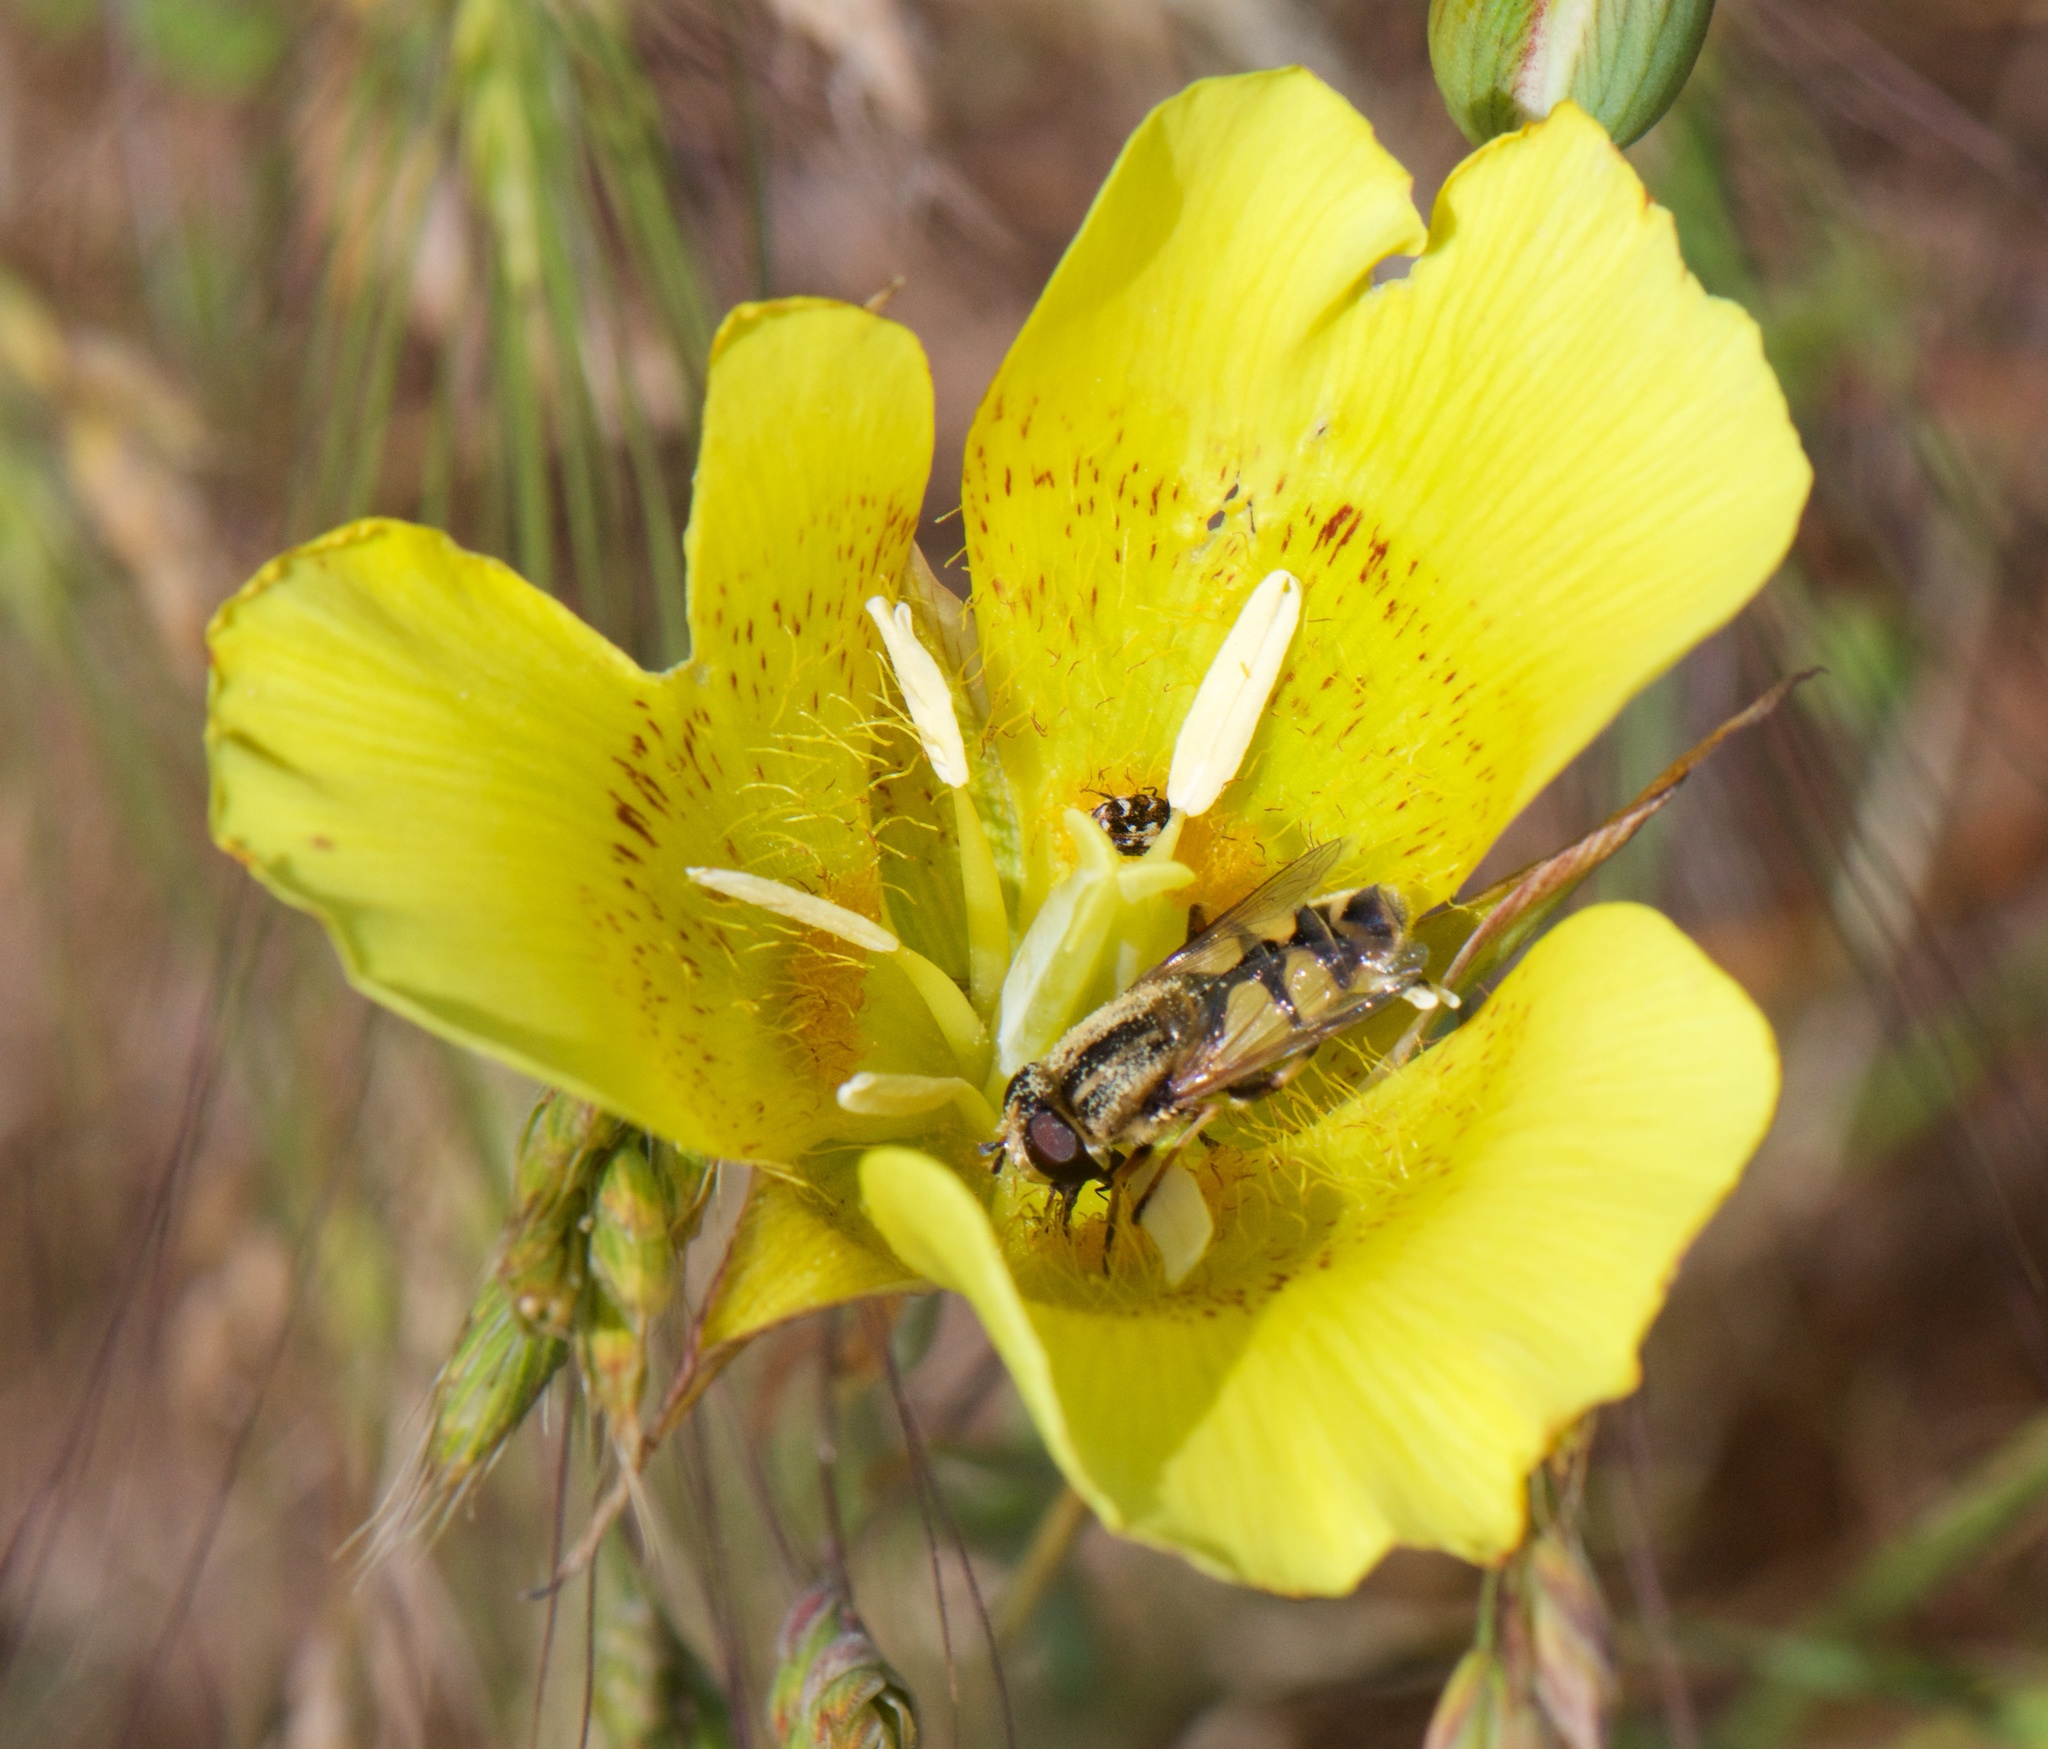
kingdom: Plantae
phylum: Tracheophyta
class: Liliopsida
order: Liliales
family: Liliaceae
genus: Calochortus
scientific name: Calochortus luteus
